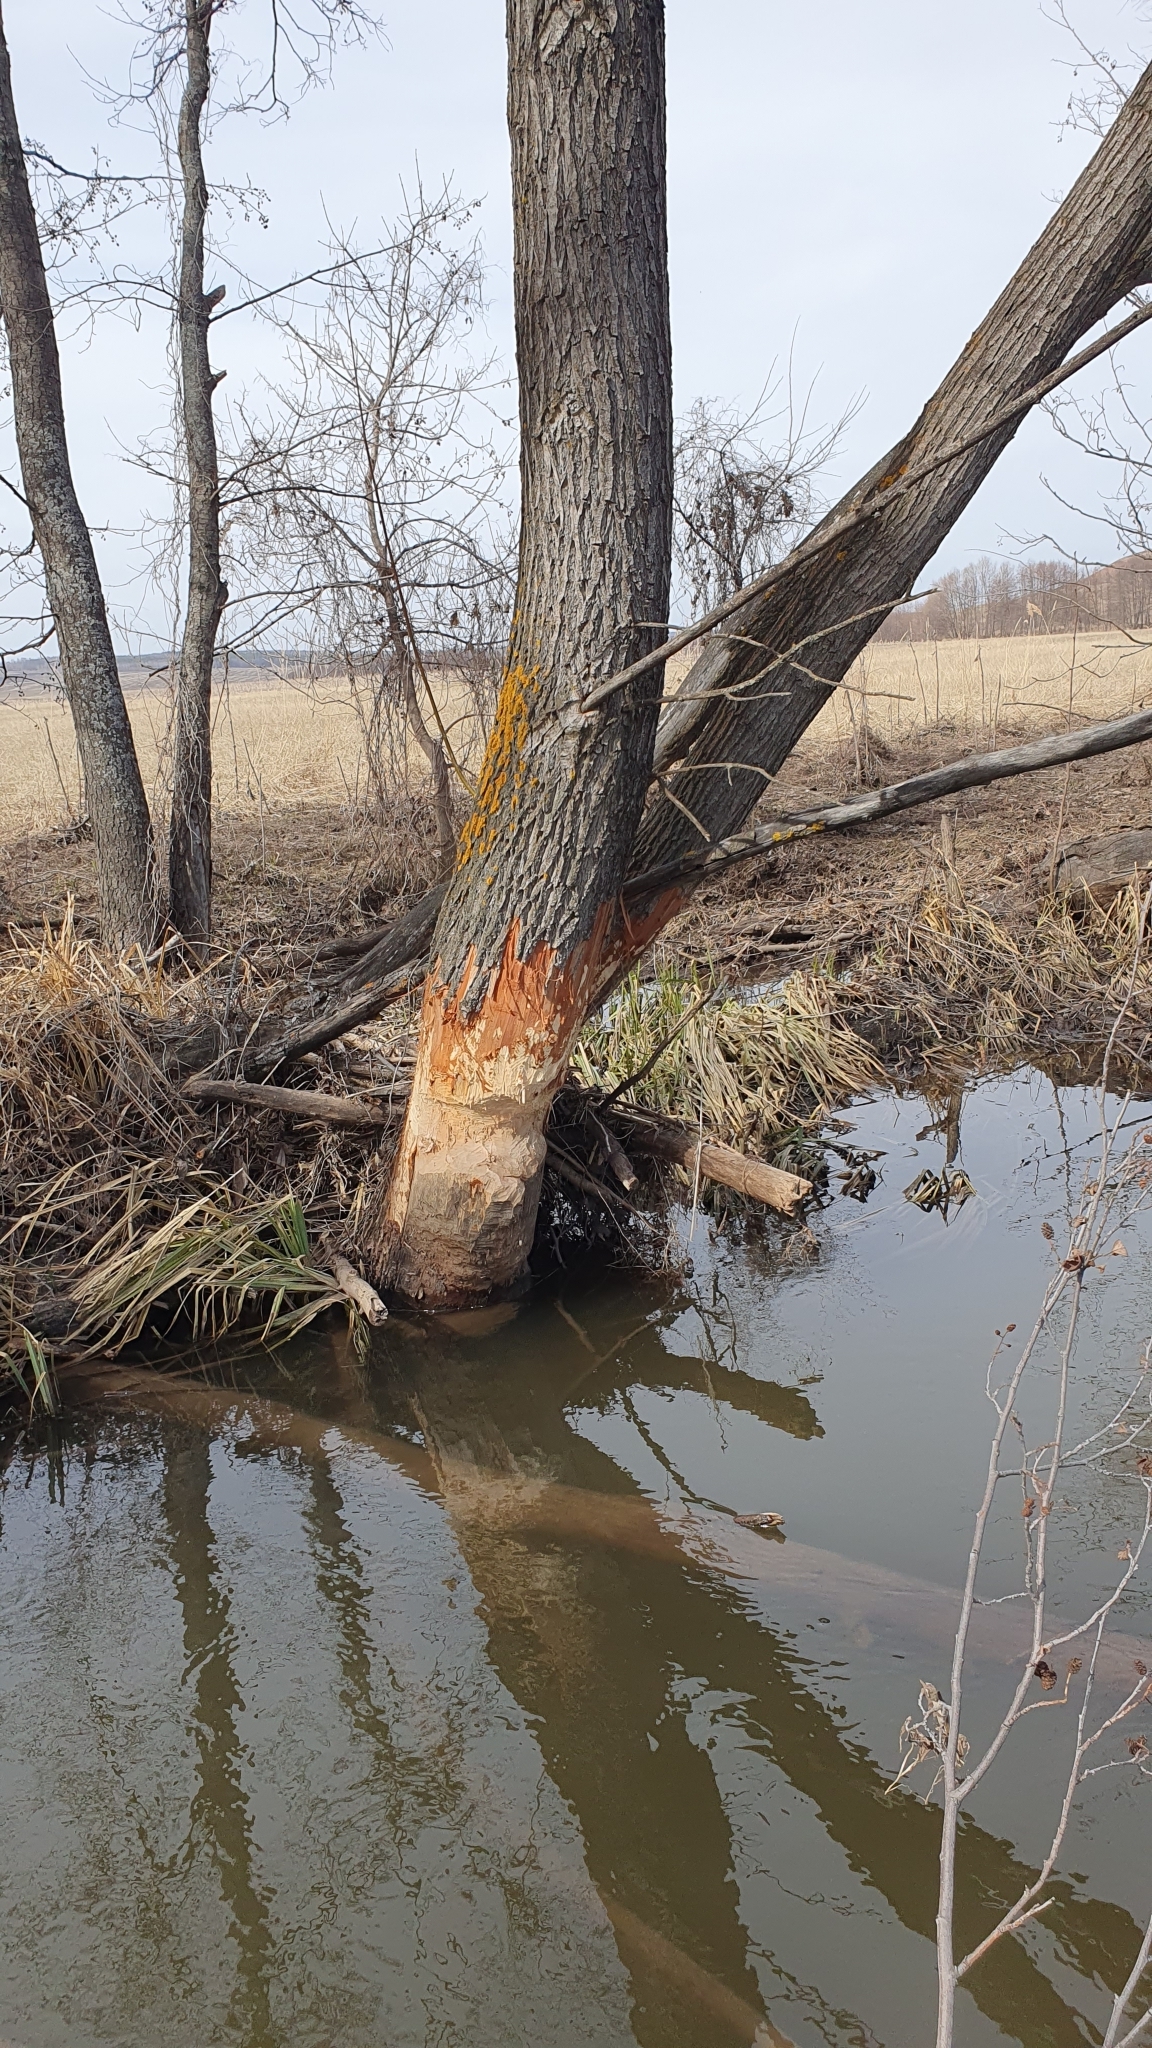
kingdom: Animalia
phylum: Chordata
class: Mammalia
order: Rodentia
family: Castoridae
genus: Castor
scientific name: Castor fiber
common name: Eurasian beaver
